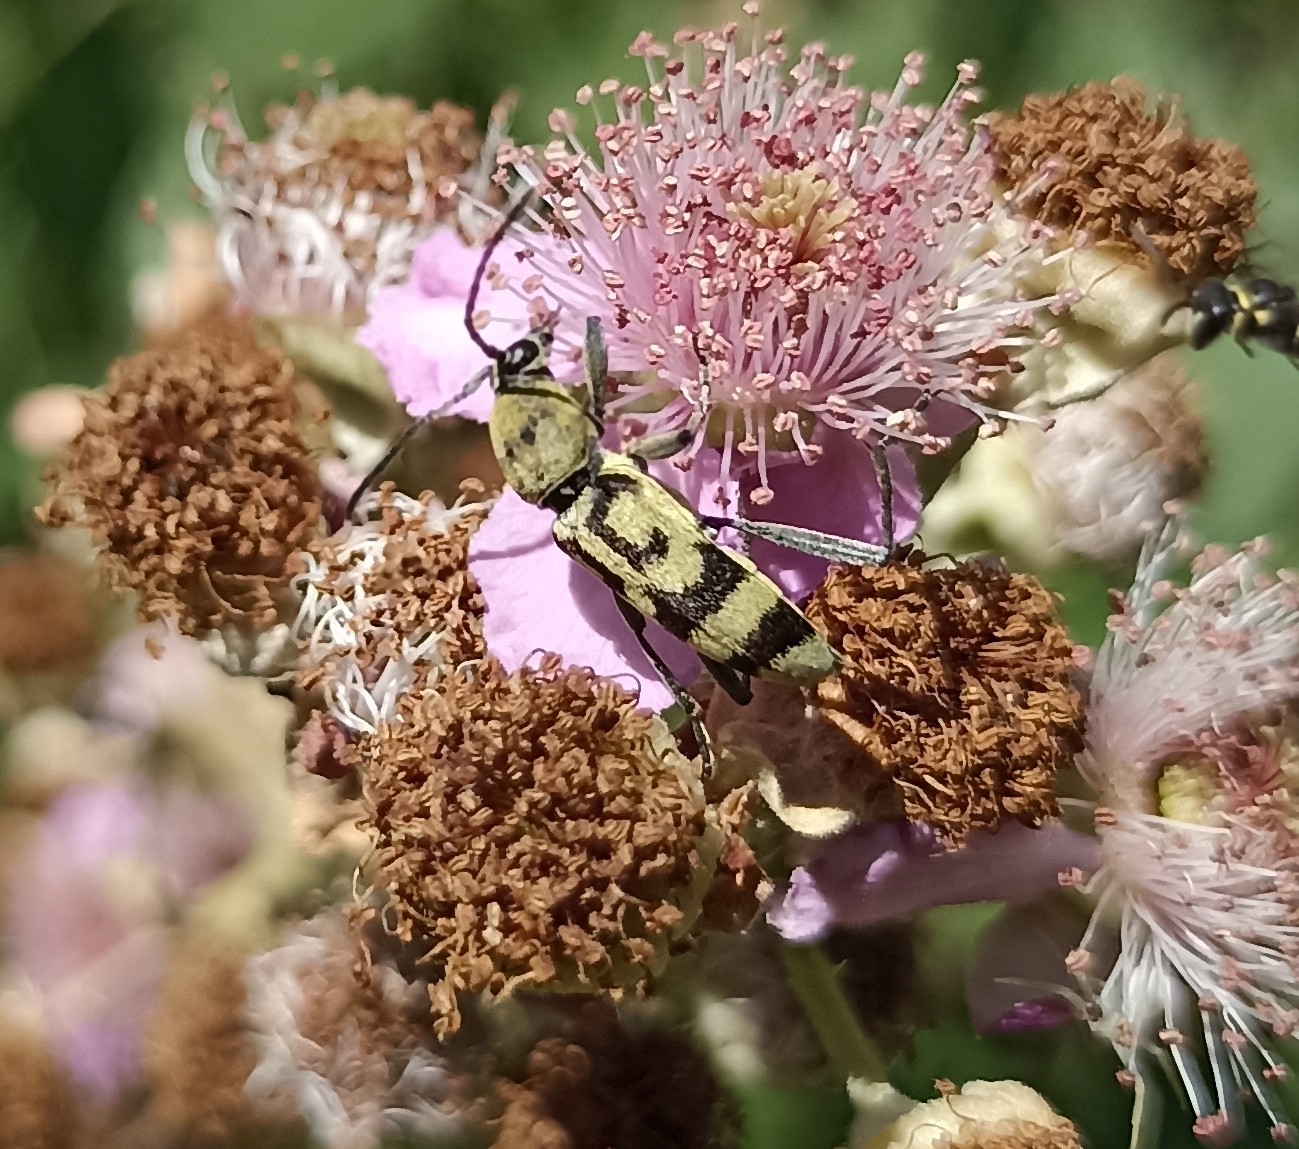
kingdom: Animalia
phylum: Arthropoda
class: Insecta
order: Coleoptera
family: Cerambycidae
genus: Chlorophorus
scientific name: Chlorophorus varius
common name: Grape wood borer
